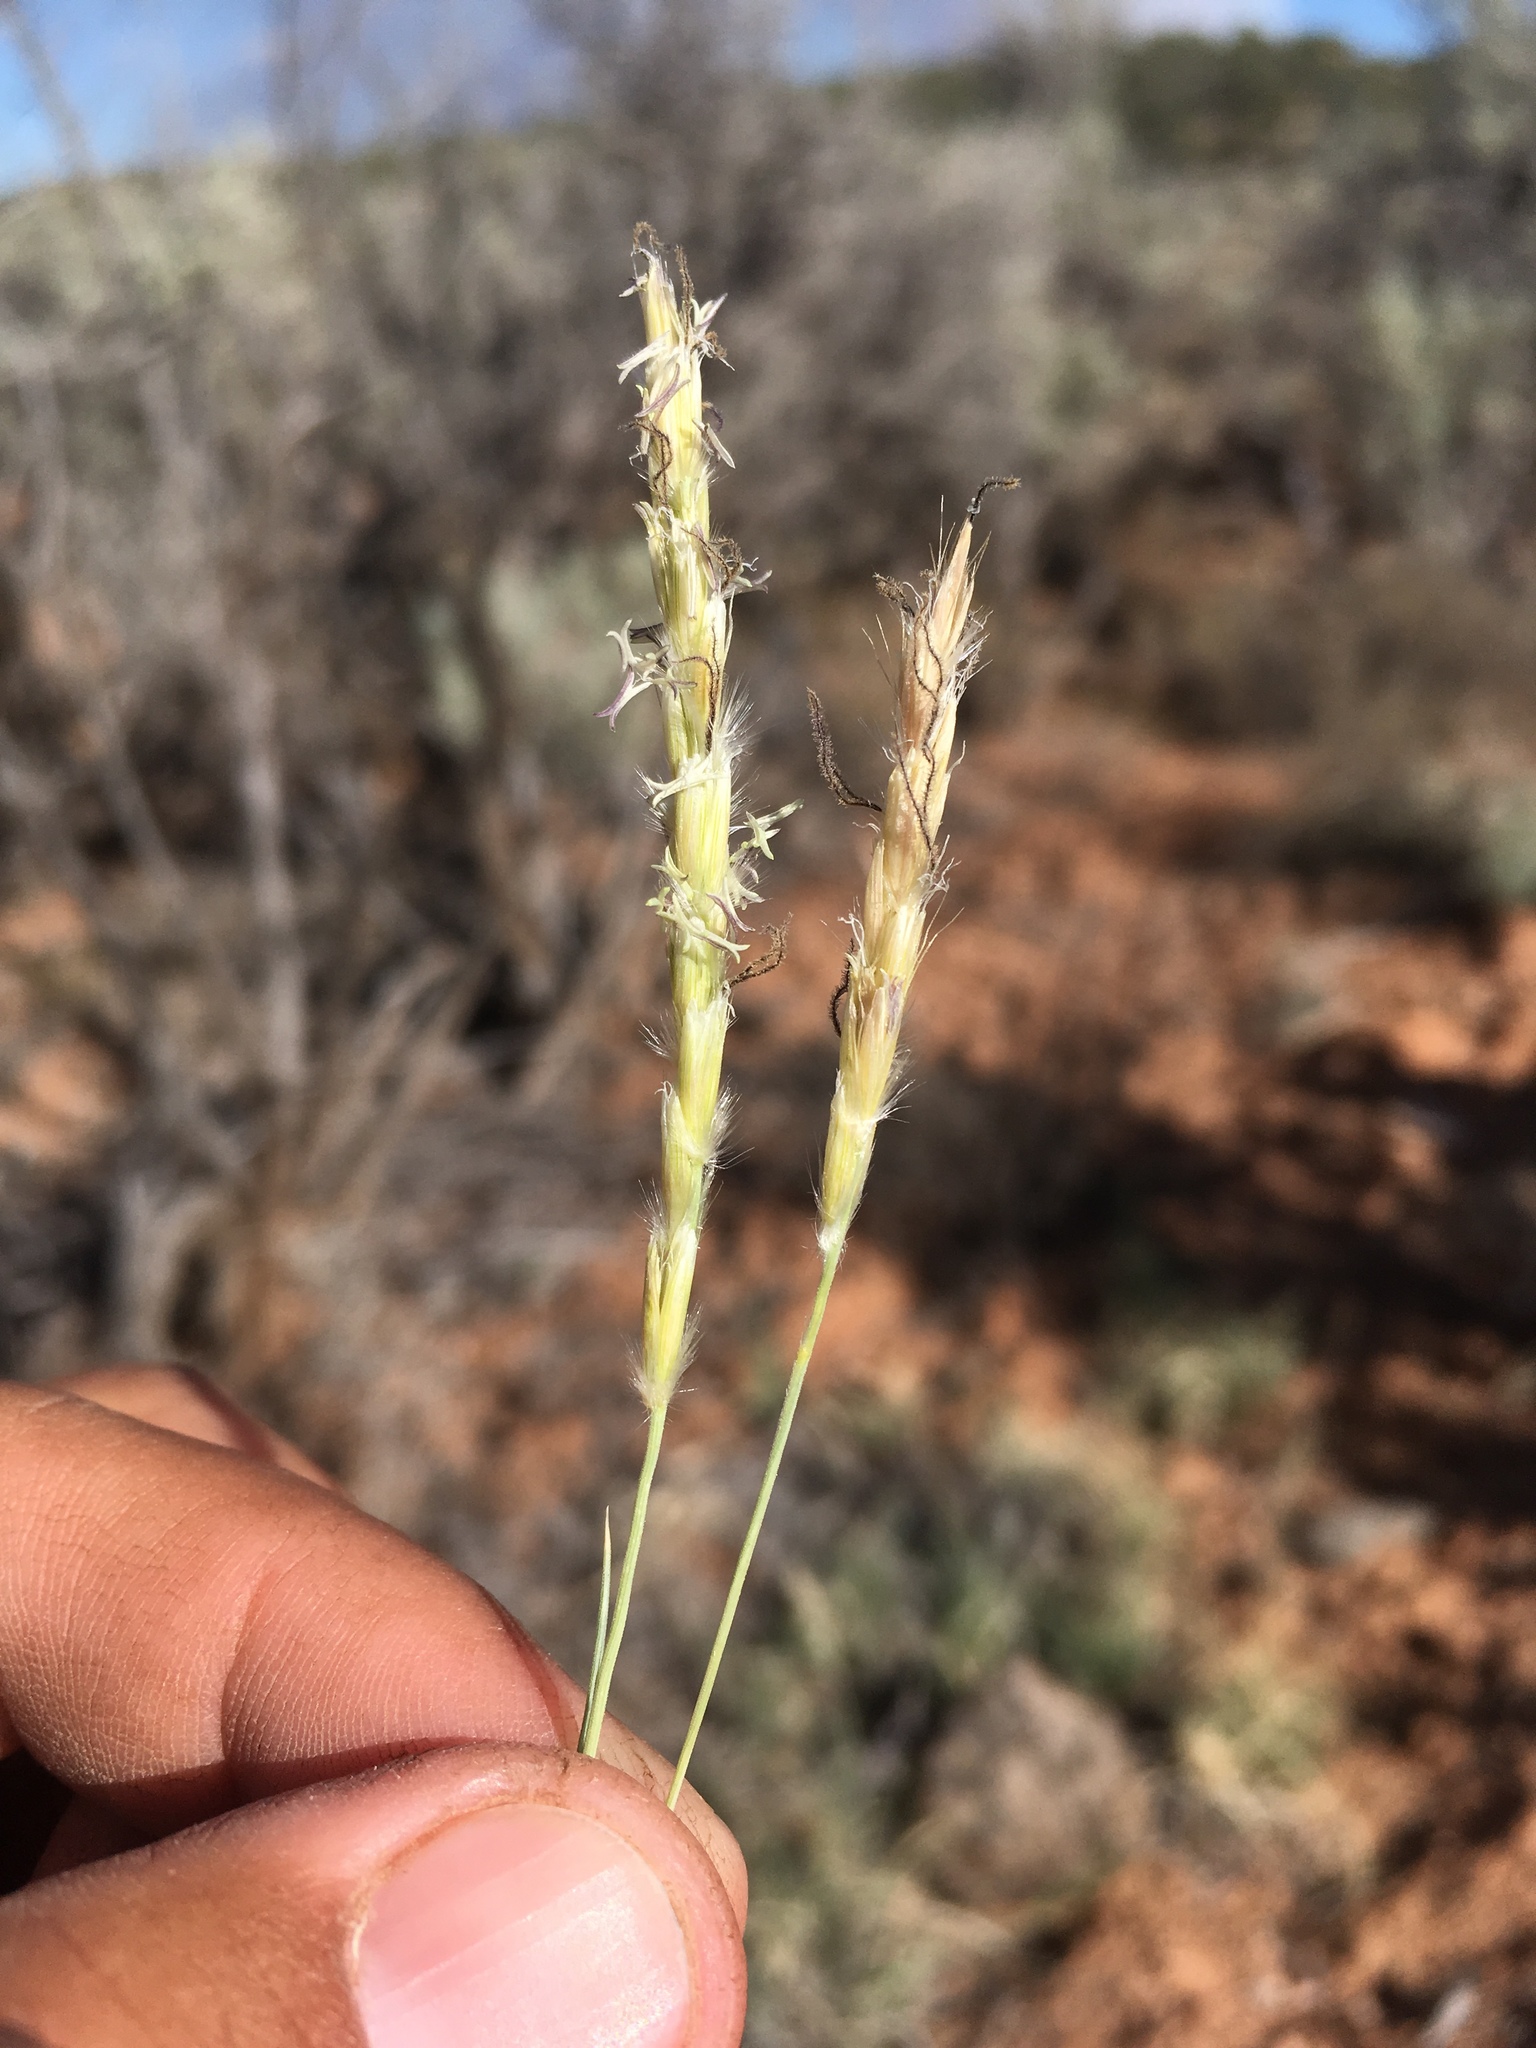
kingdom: Plantae
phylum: Tracheophyta
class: Liliopsida
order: Poales
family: Poaceae
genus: Hilaria
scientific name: Hilaria jamesii
